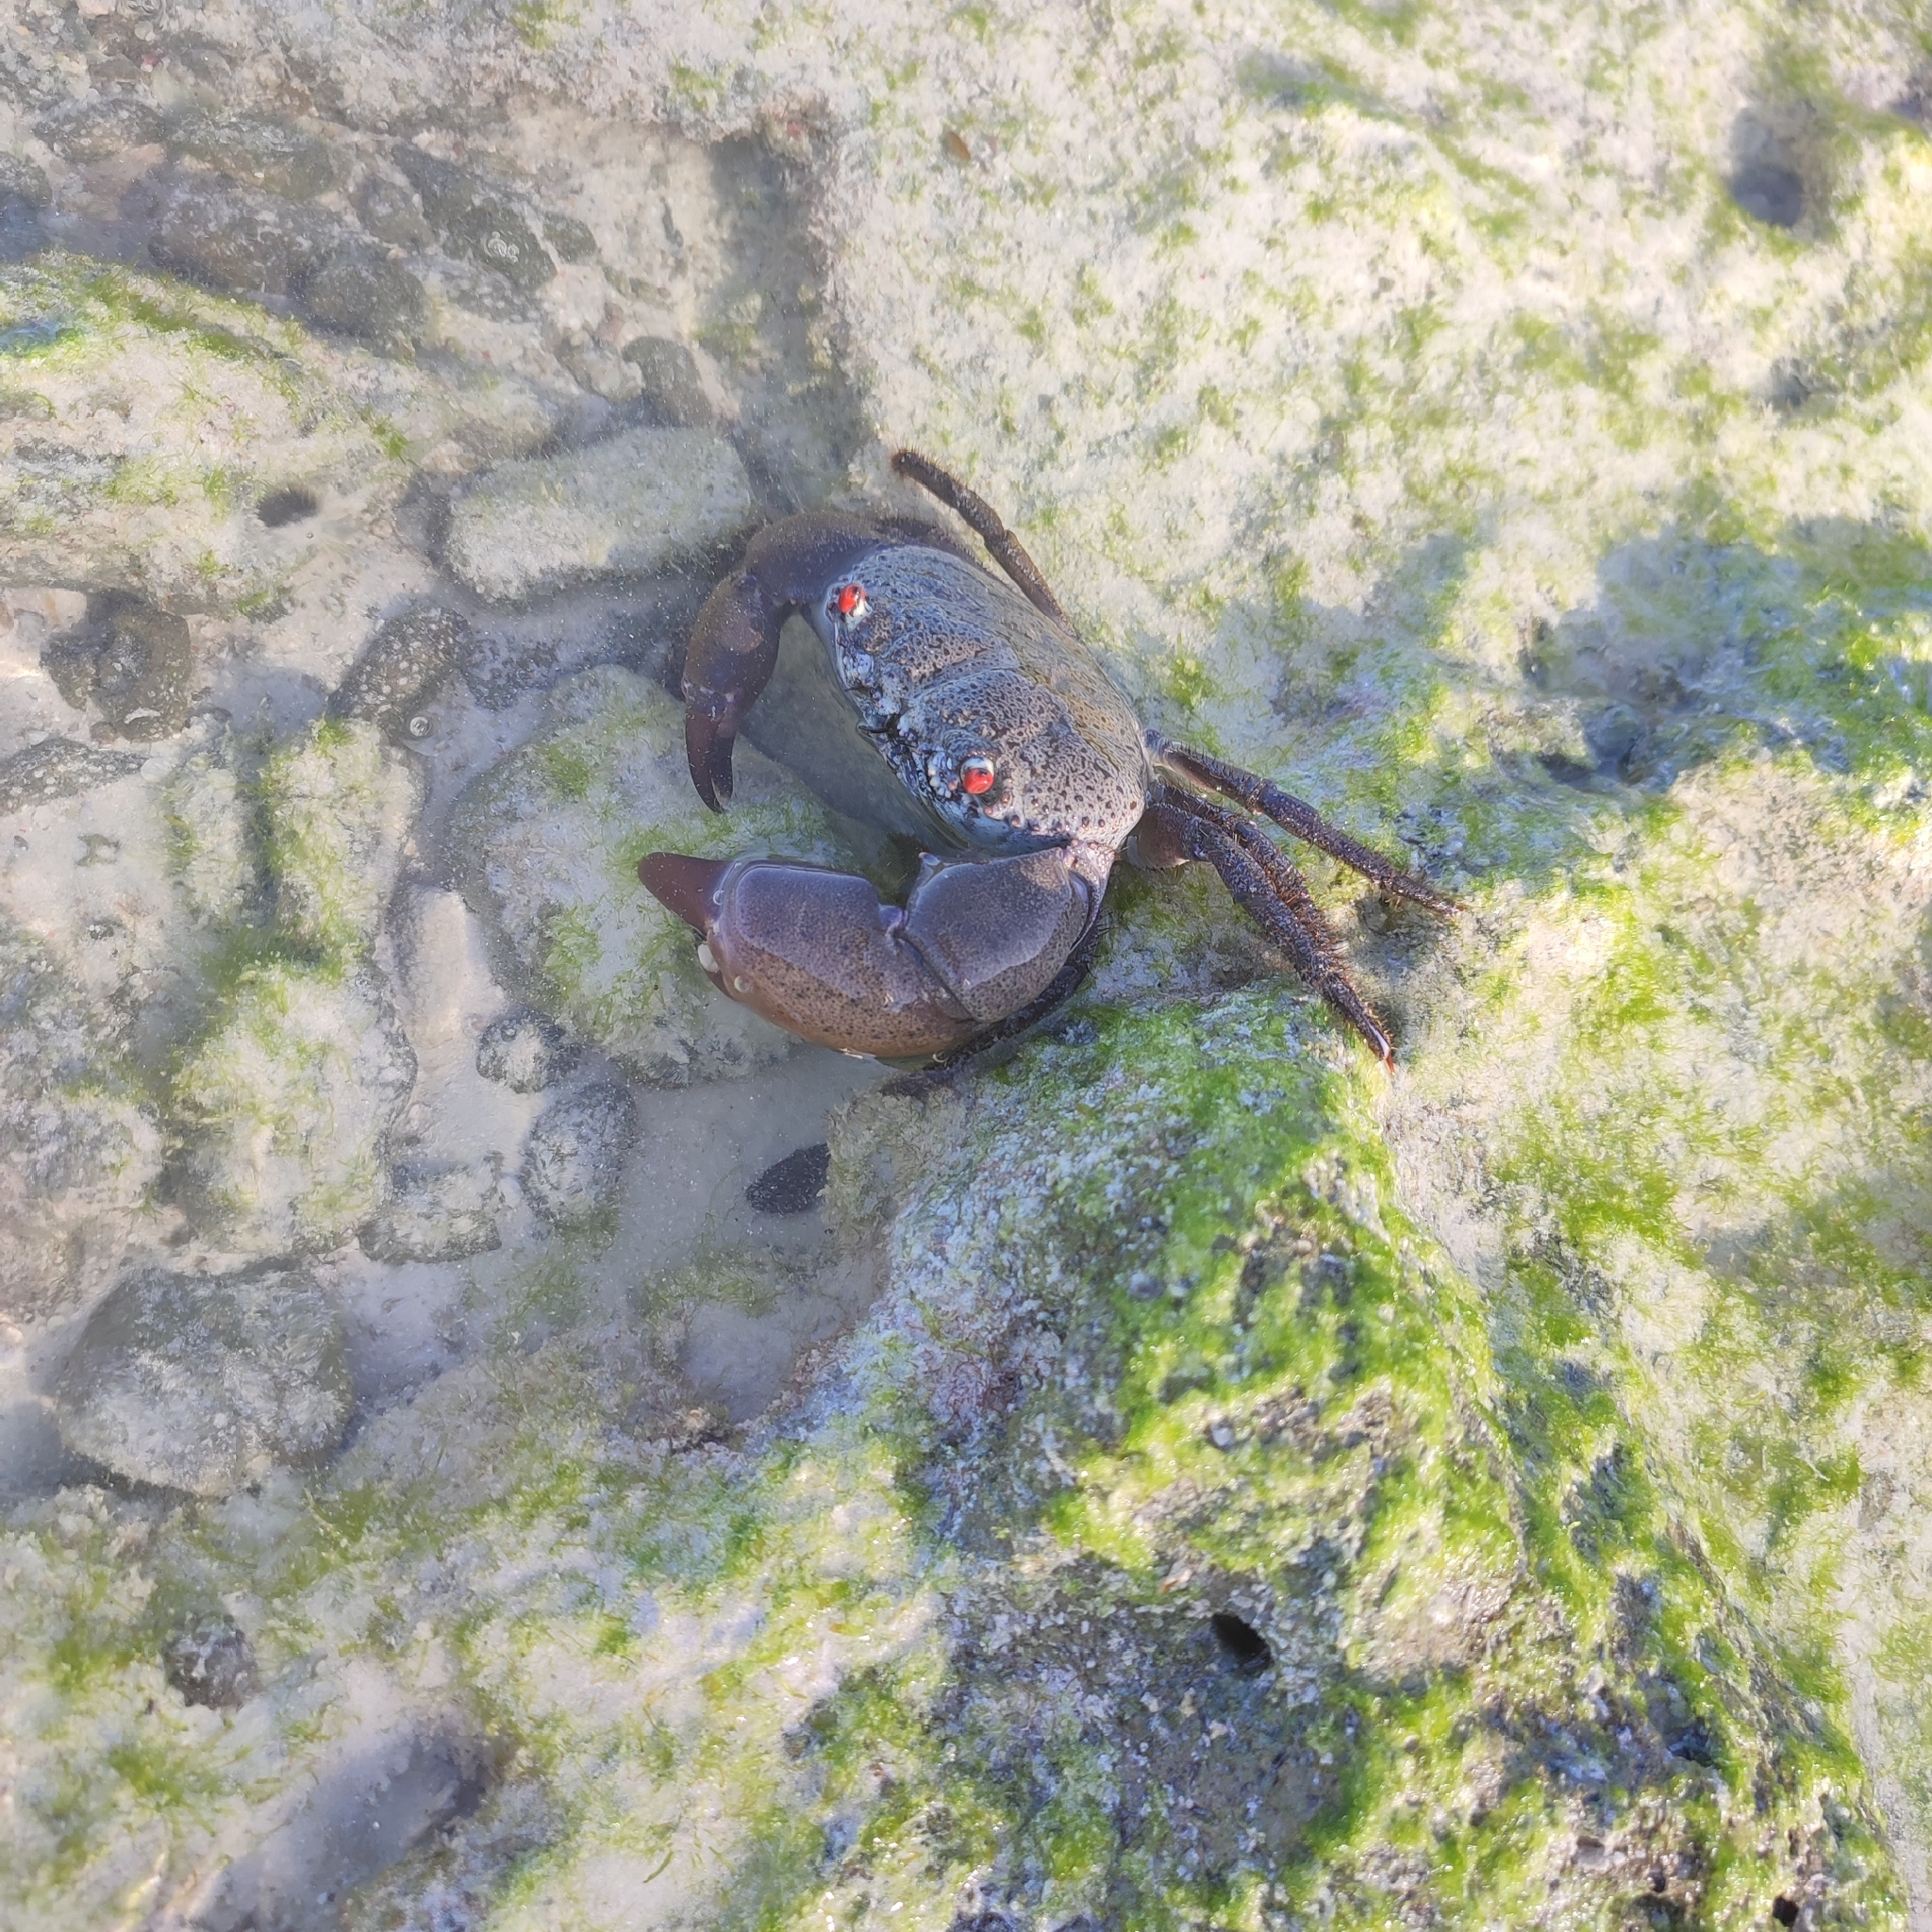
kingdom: Animalia
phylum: Arthropoda
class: Malacostraca
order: Decapoda
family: Eriphiidae
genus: Eriphia
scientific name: Eriphia sebana
